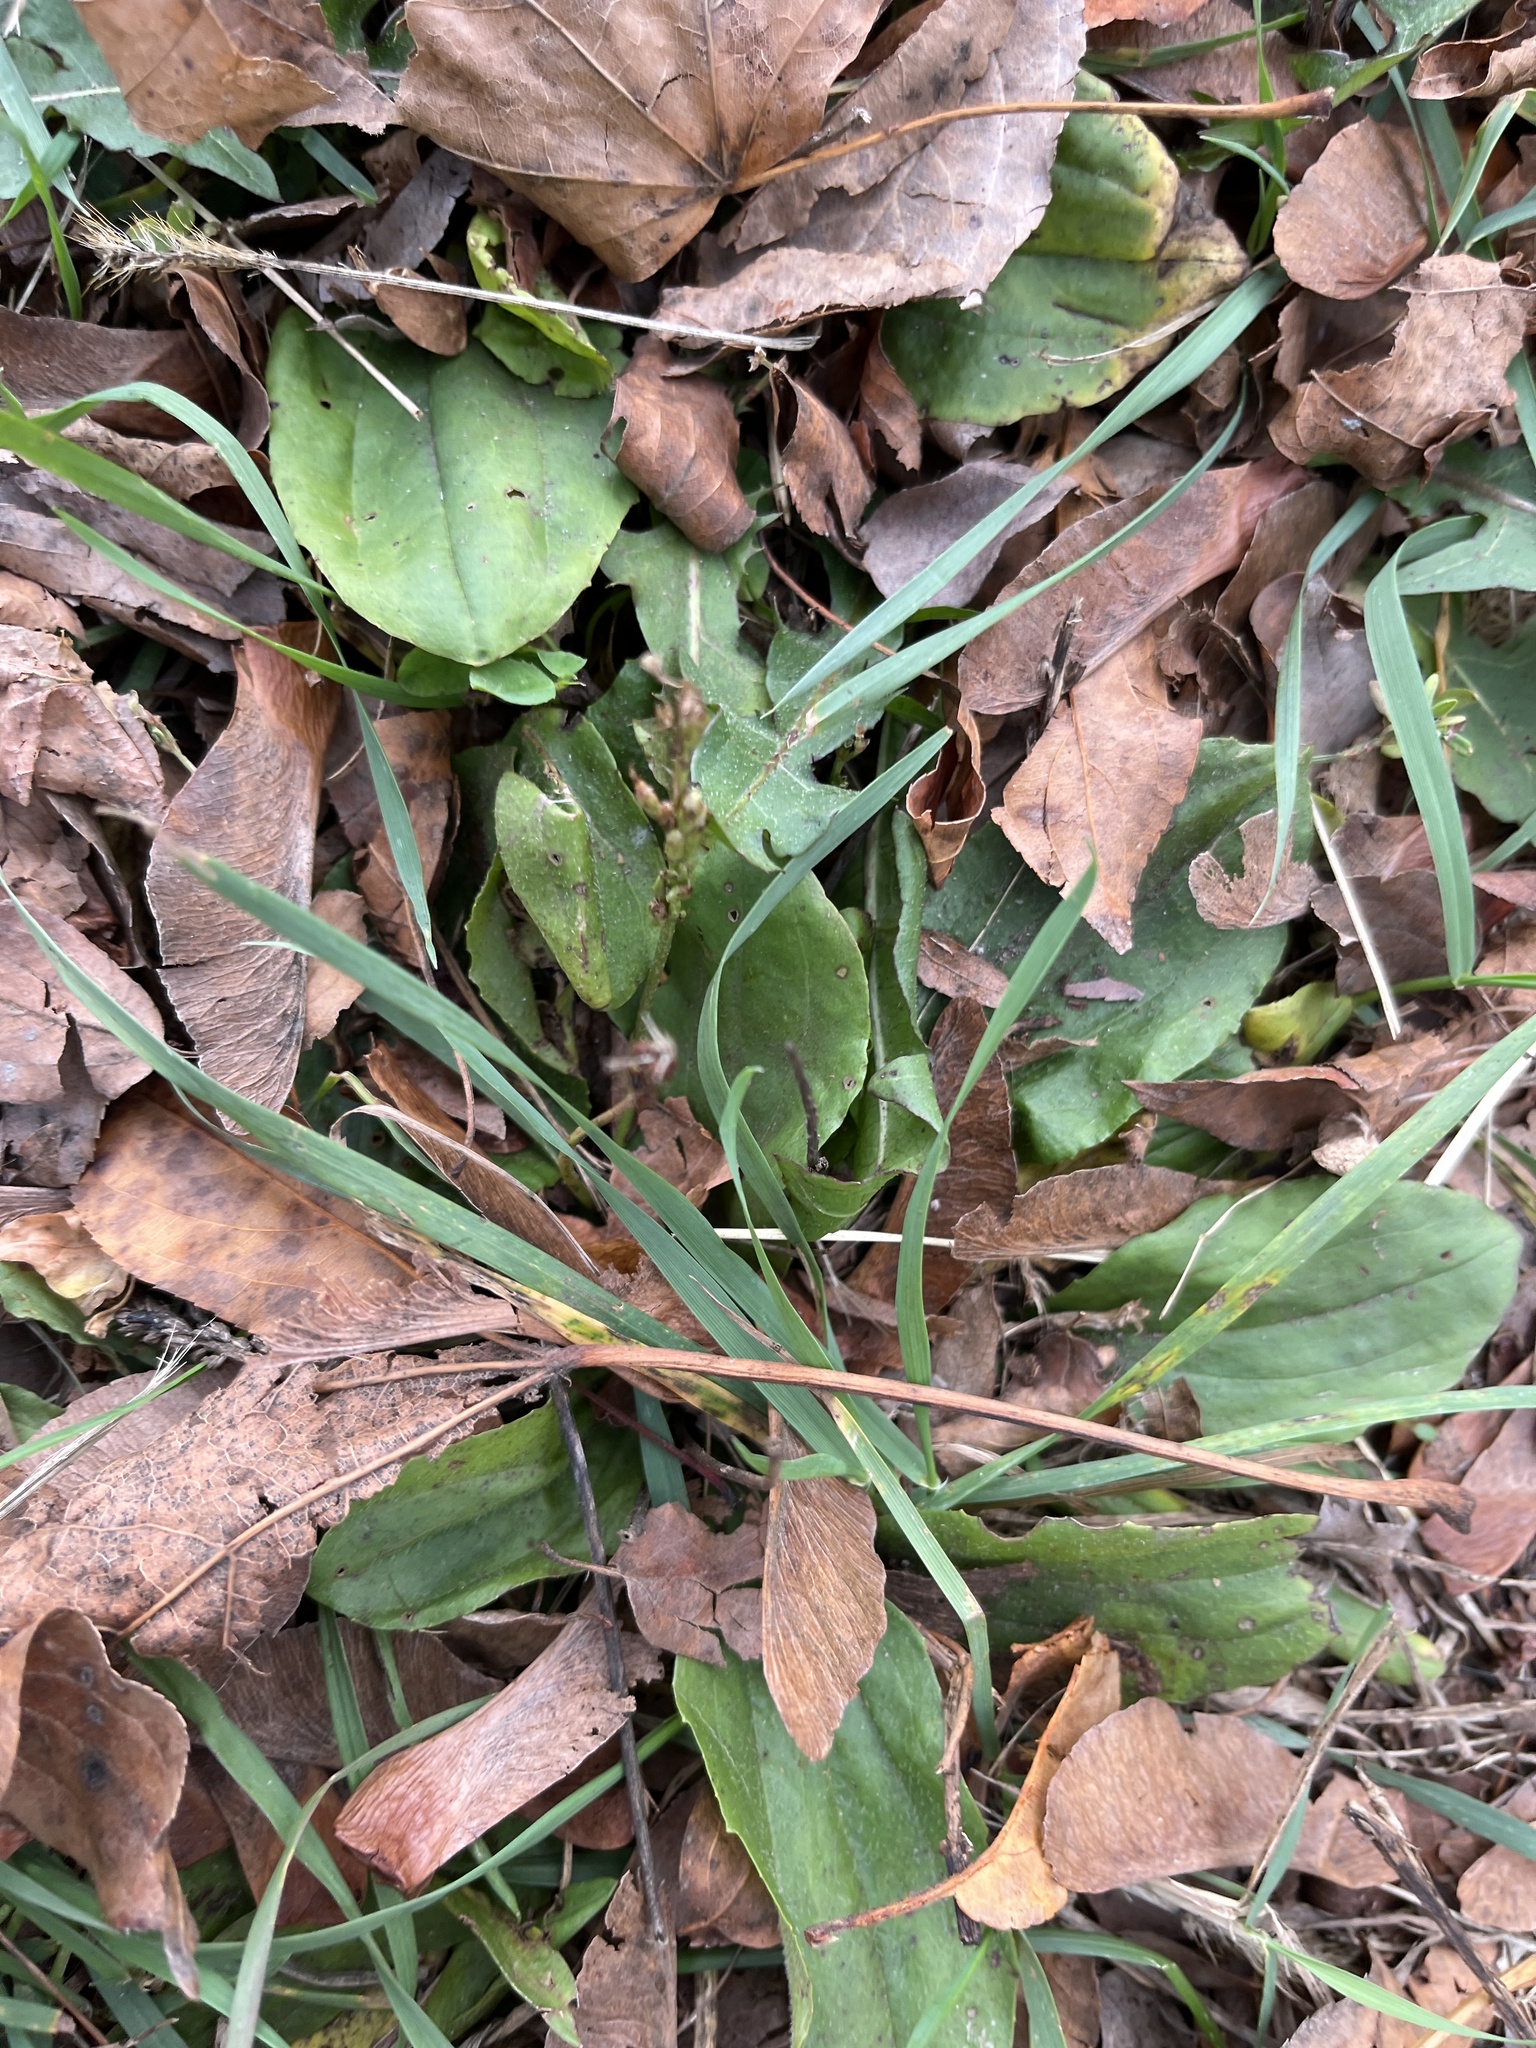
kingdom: Plantae
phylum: Tracheophyta
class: Magnoliopsida
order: Lamiales
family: Plantaginaceae
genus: Plantago
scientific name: Plantago major
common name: Common plantain
